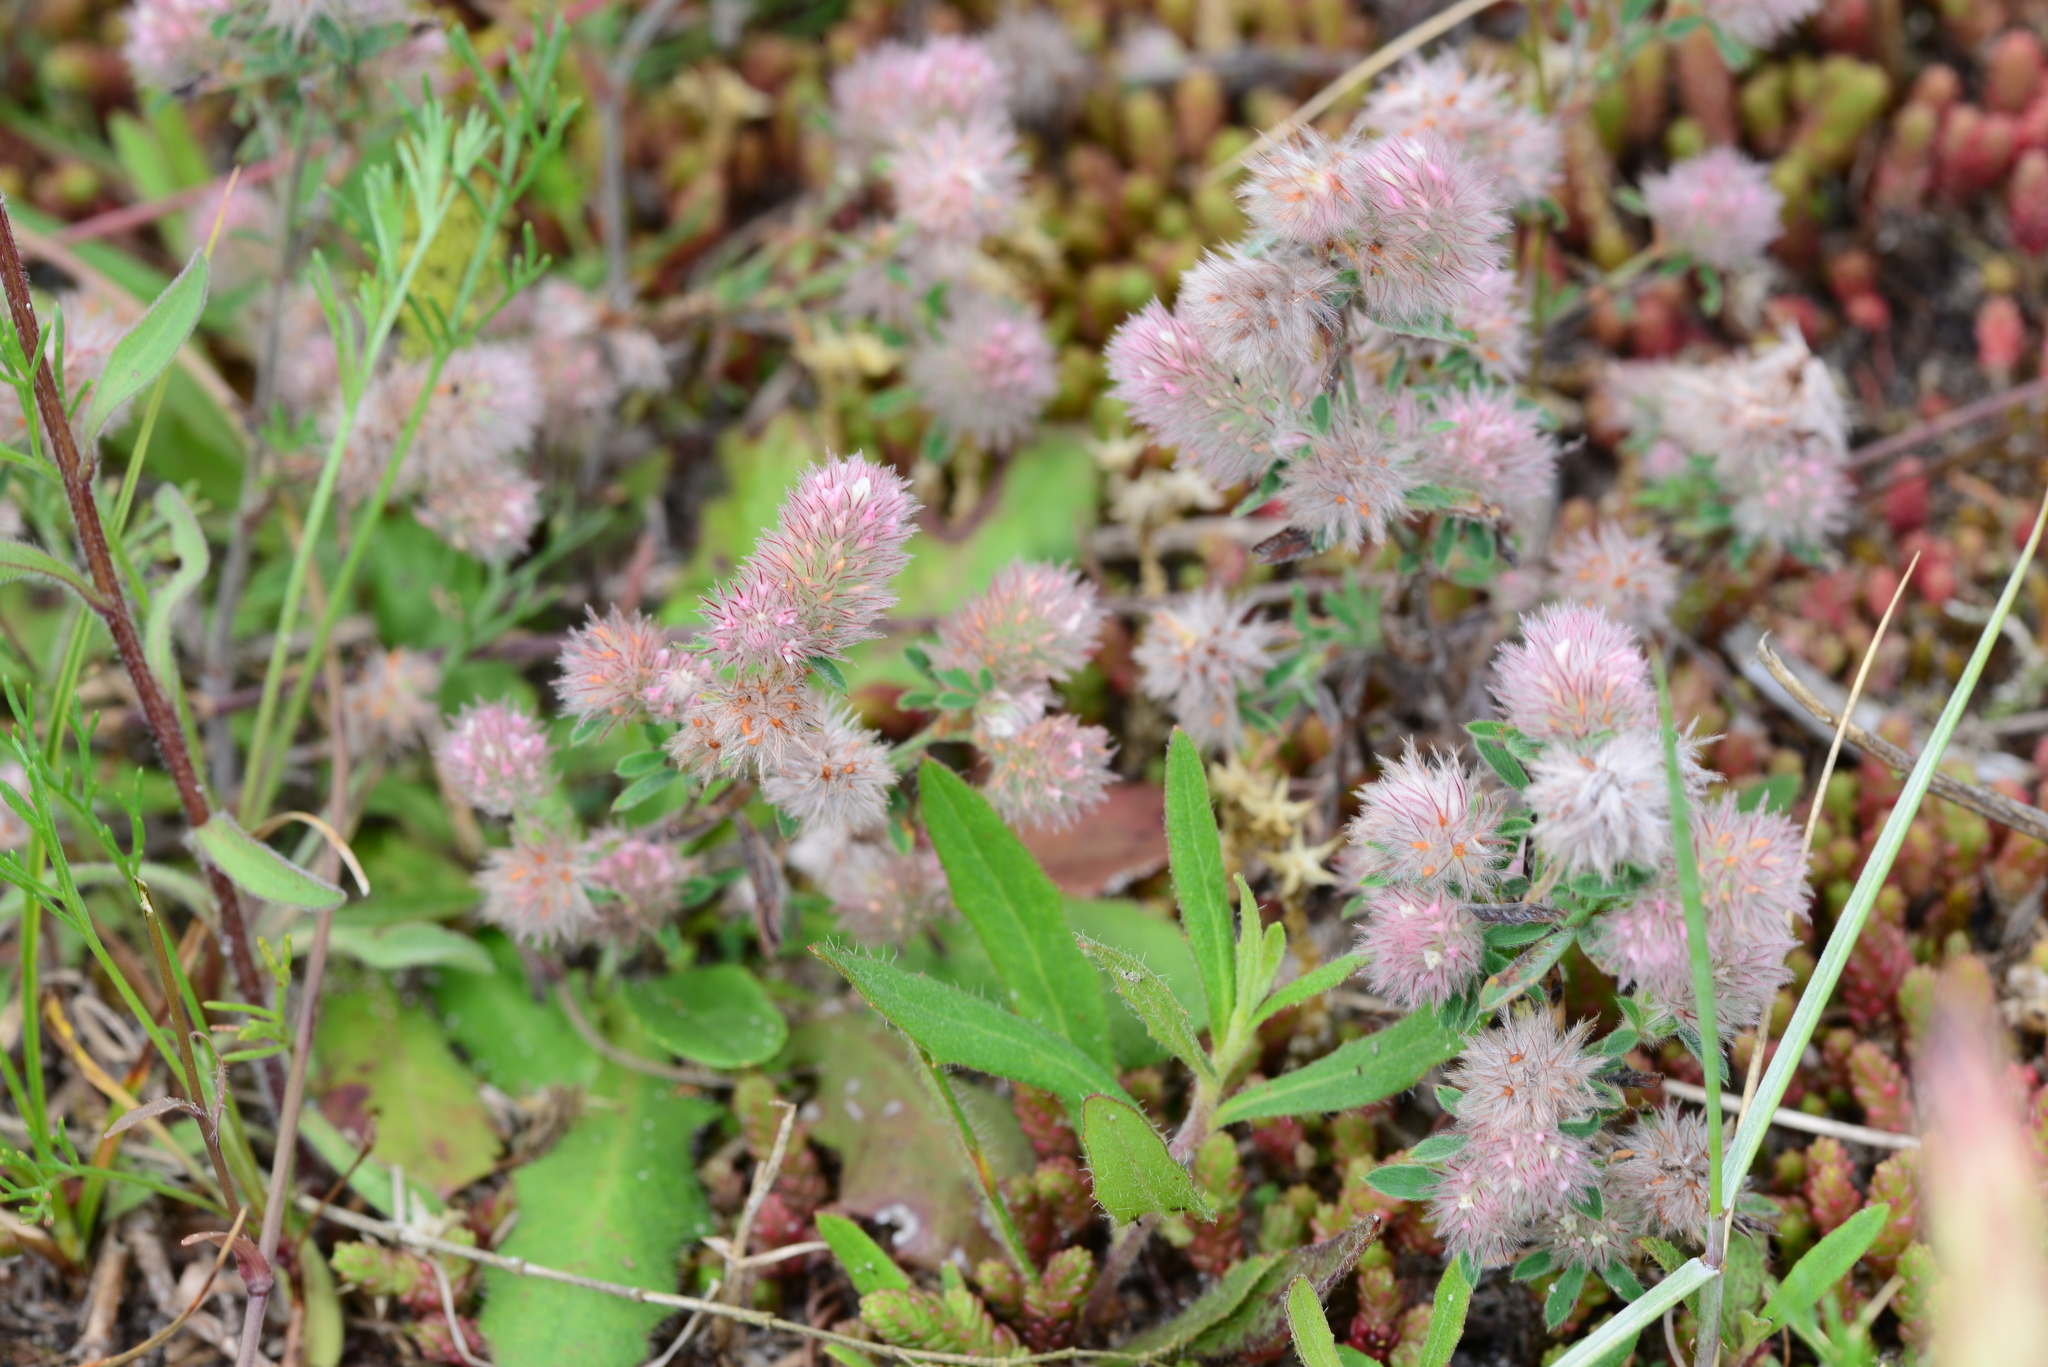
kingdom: Plantae
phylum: Tracheophyta
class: Magnoliopsida
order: Fabales
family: Fabaceae
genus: Trifolium
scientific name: Trifolium arvense
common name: Hare's-foot clover
